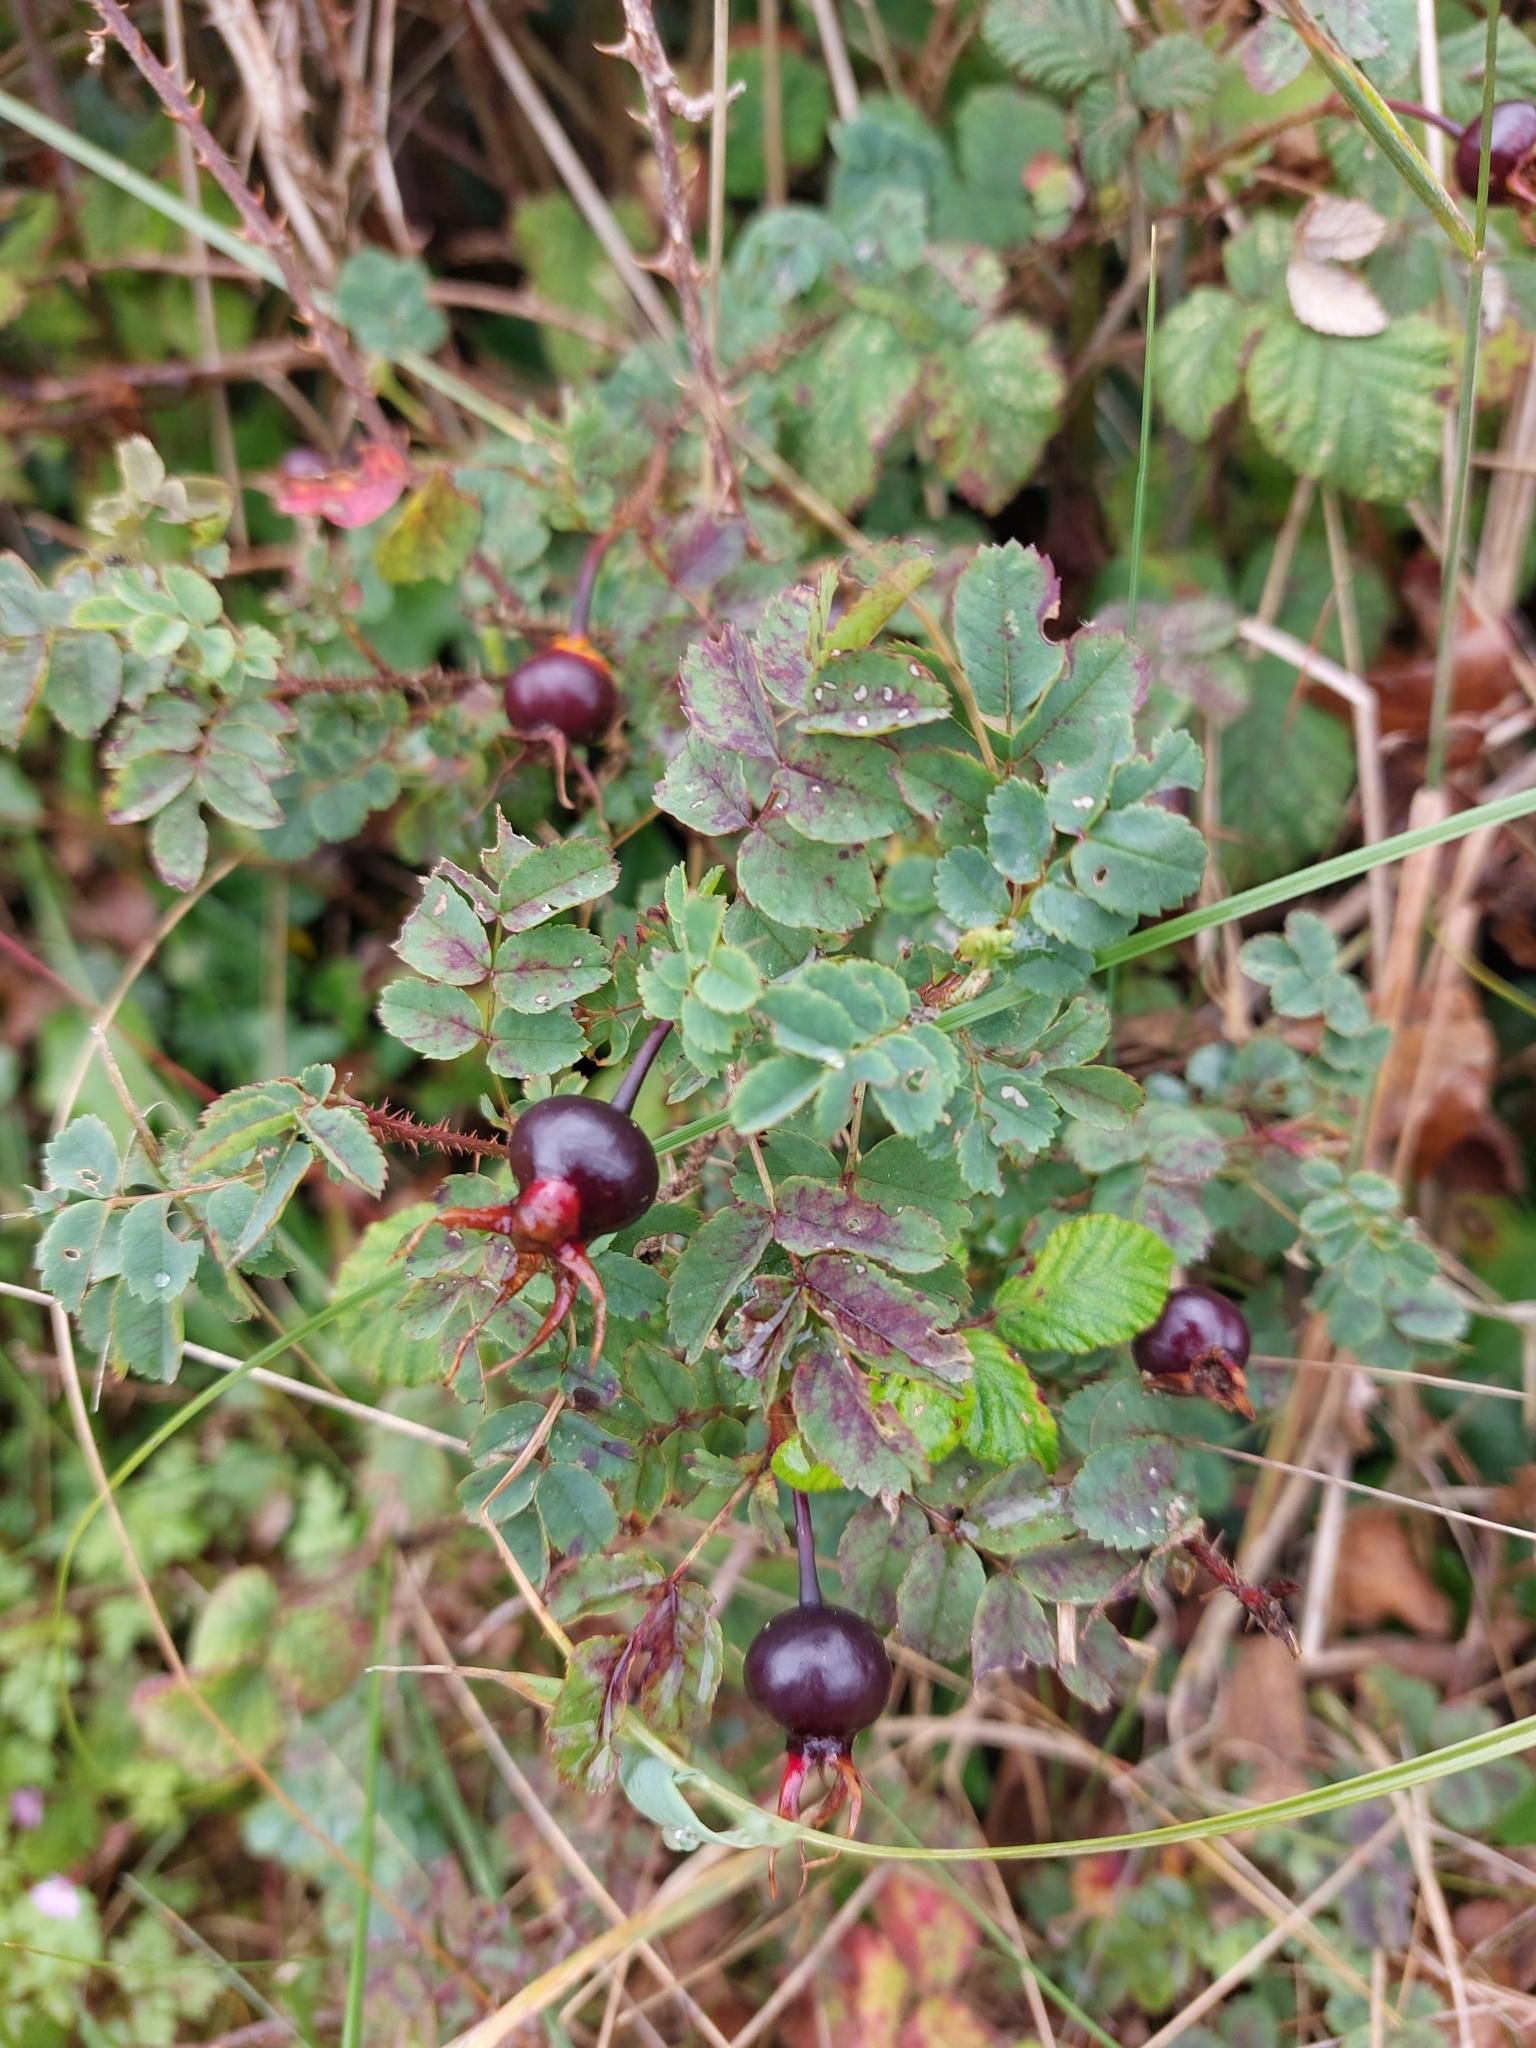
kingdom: Plantae
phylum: Tracheophyta
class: Magnoliopsida
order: Rosales
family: Rosaceae
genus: Rosa
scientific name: Rosa spinosissima
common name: Burnet rose
